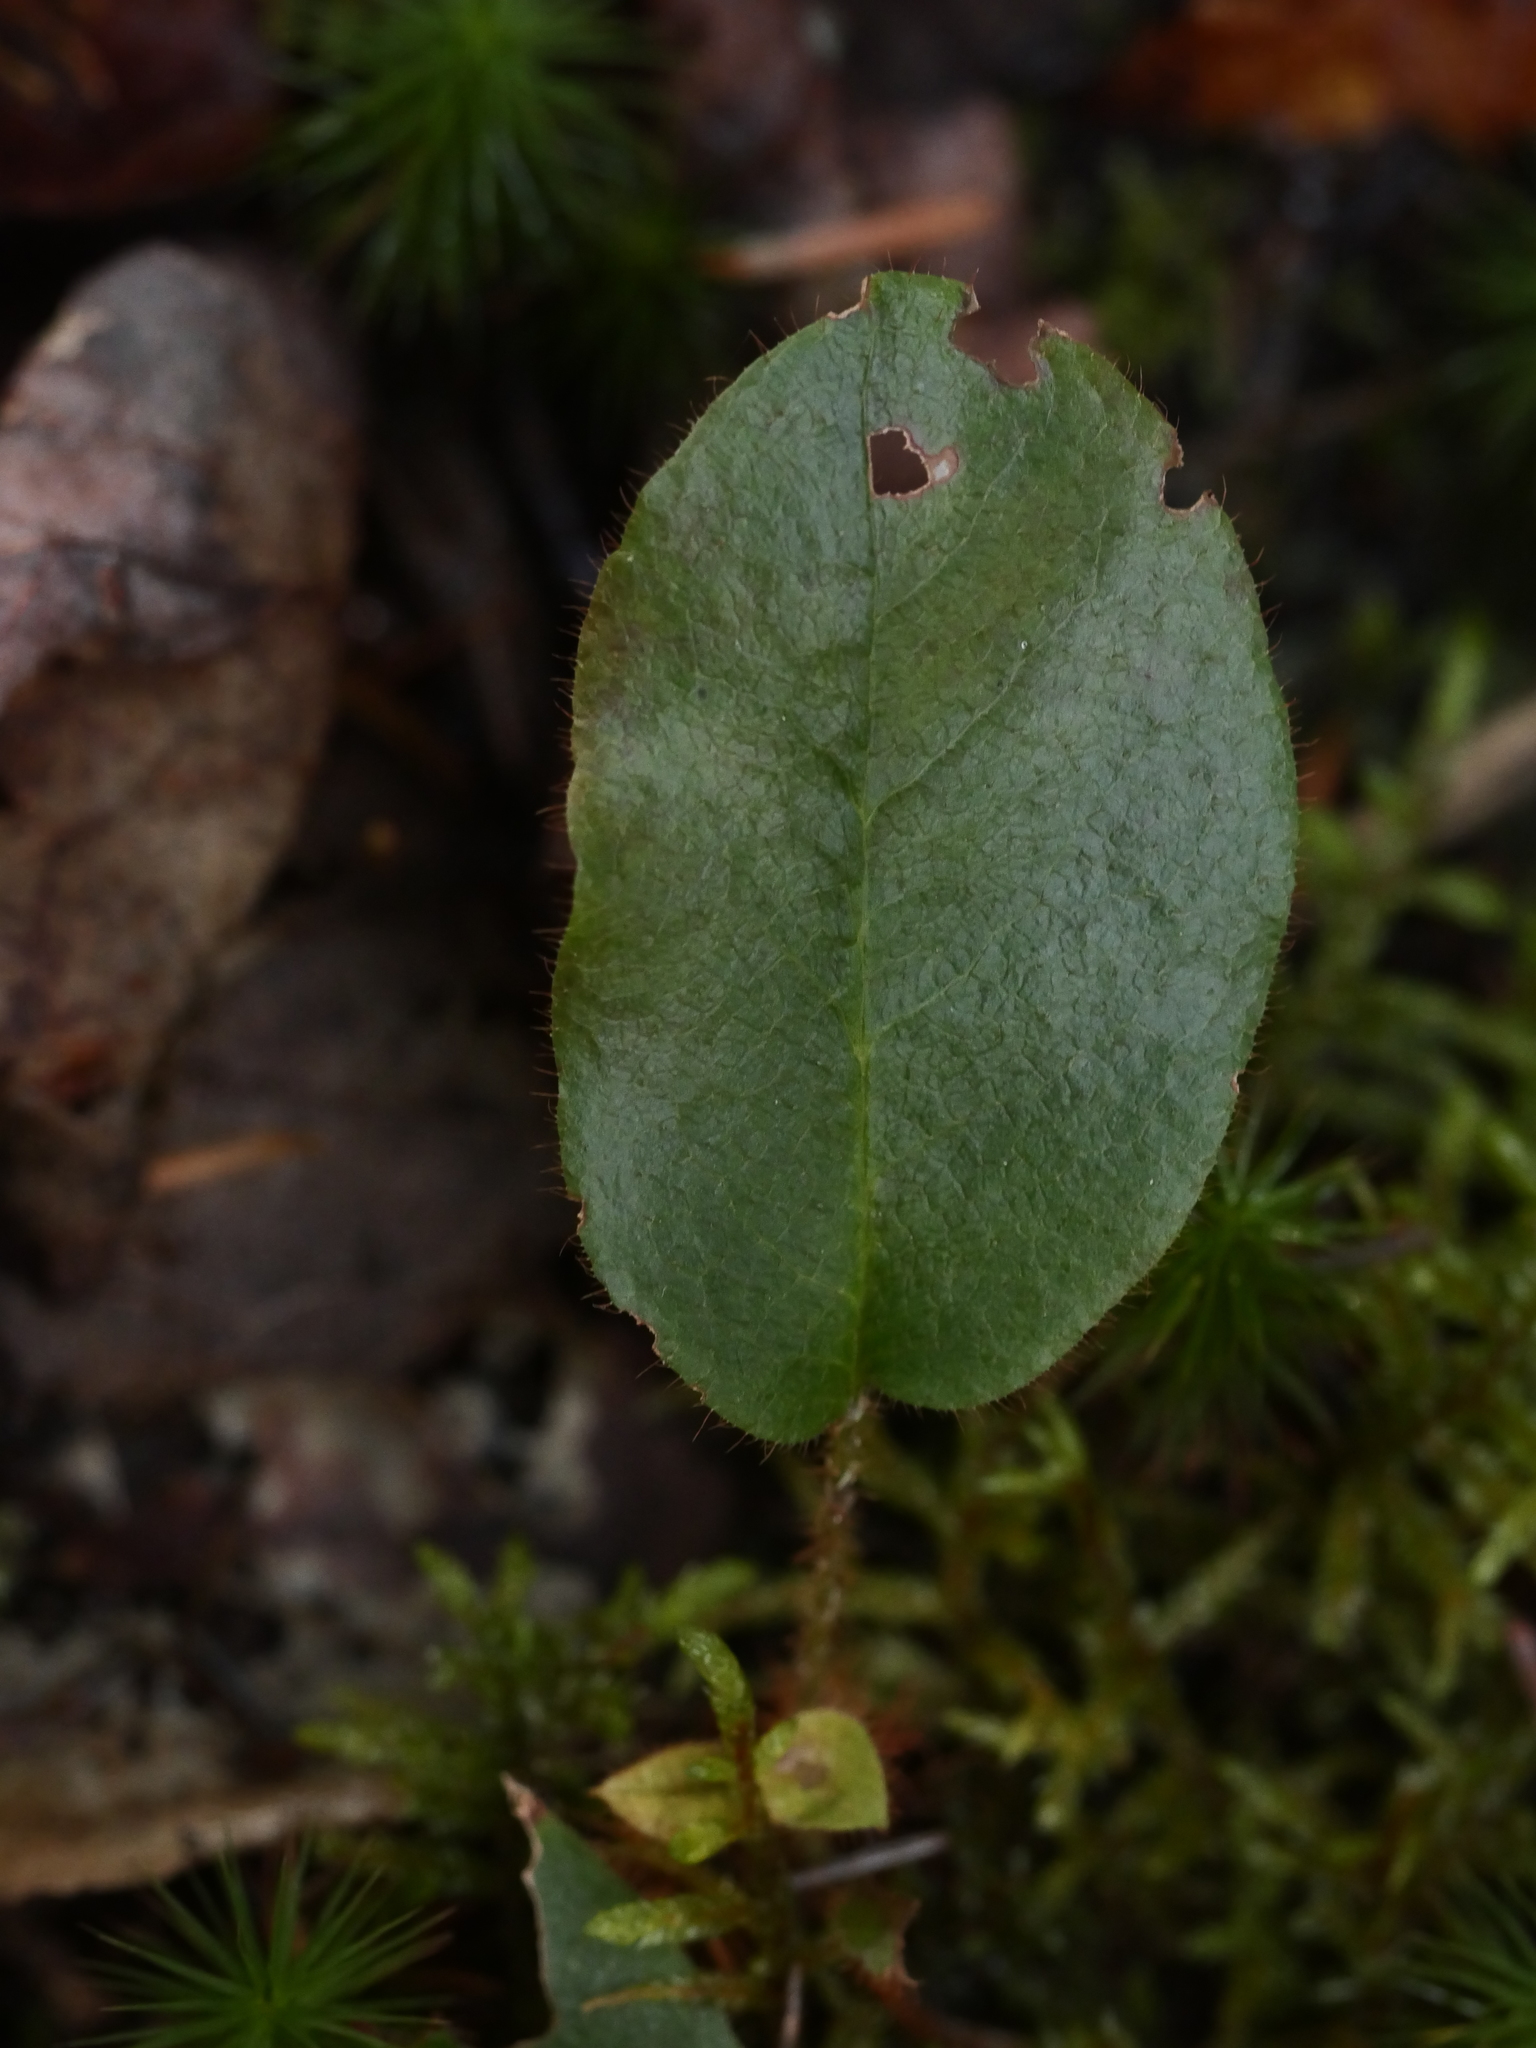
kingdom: Plantae
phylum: Tracheophyta
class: Magnoliopsida
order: Ericales
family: Ericaceae
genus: Epigaea
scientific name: Epigaea repens
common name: Gravelroot
